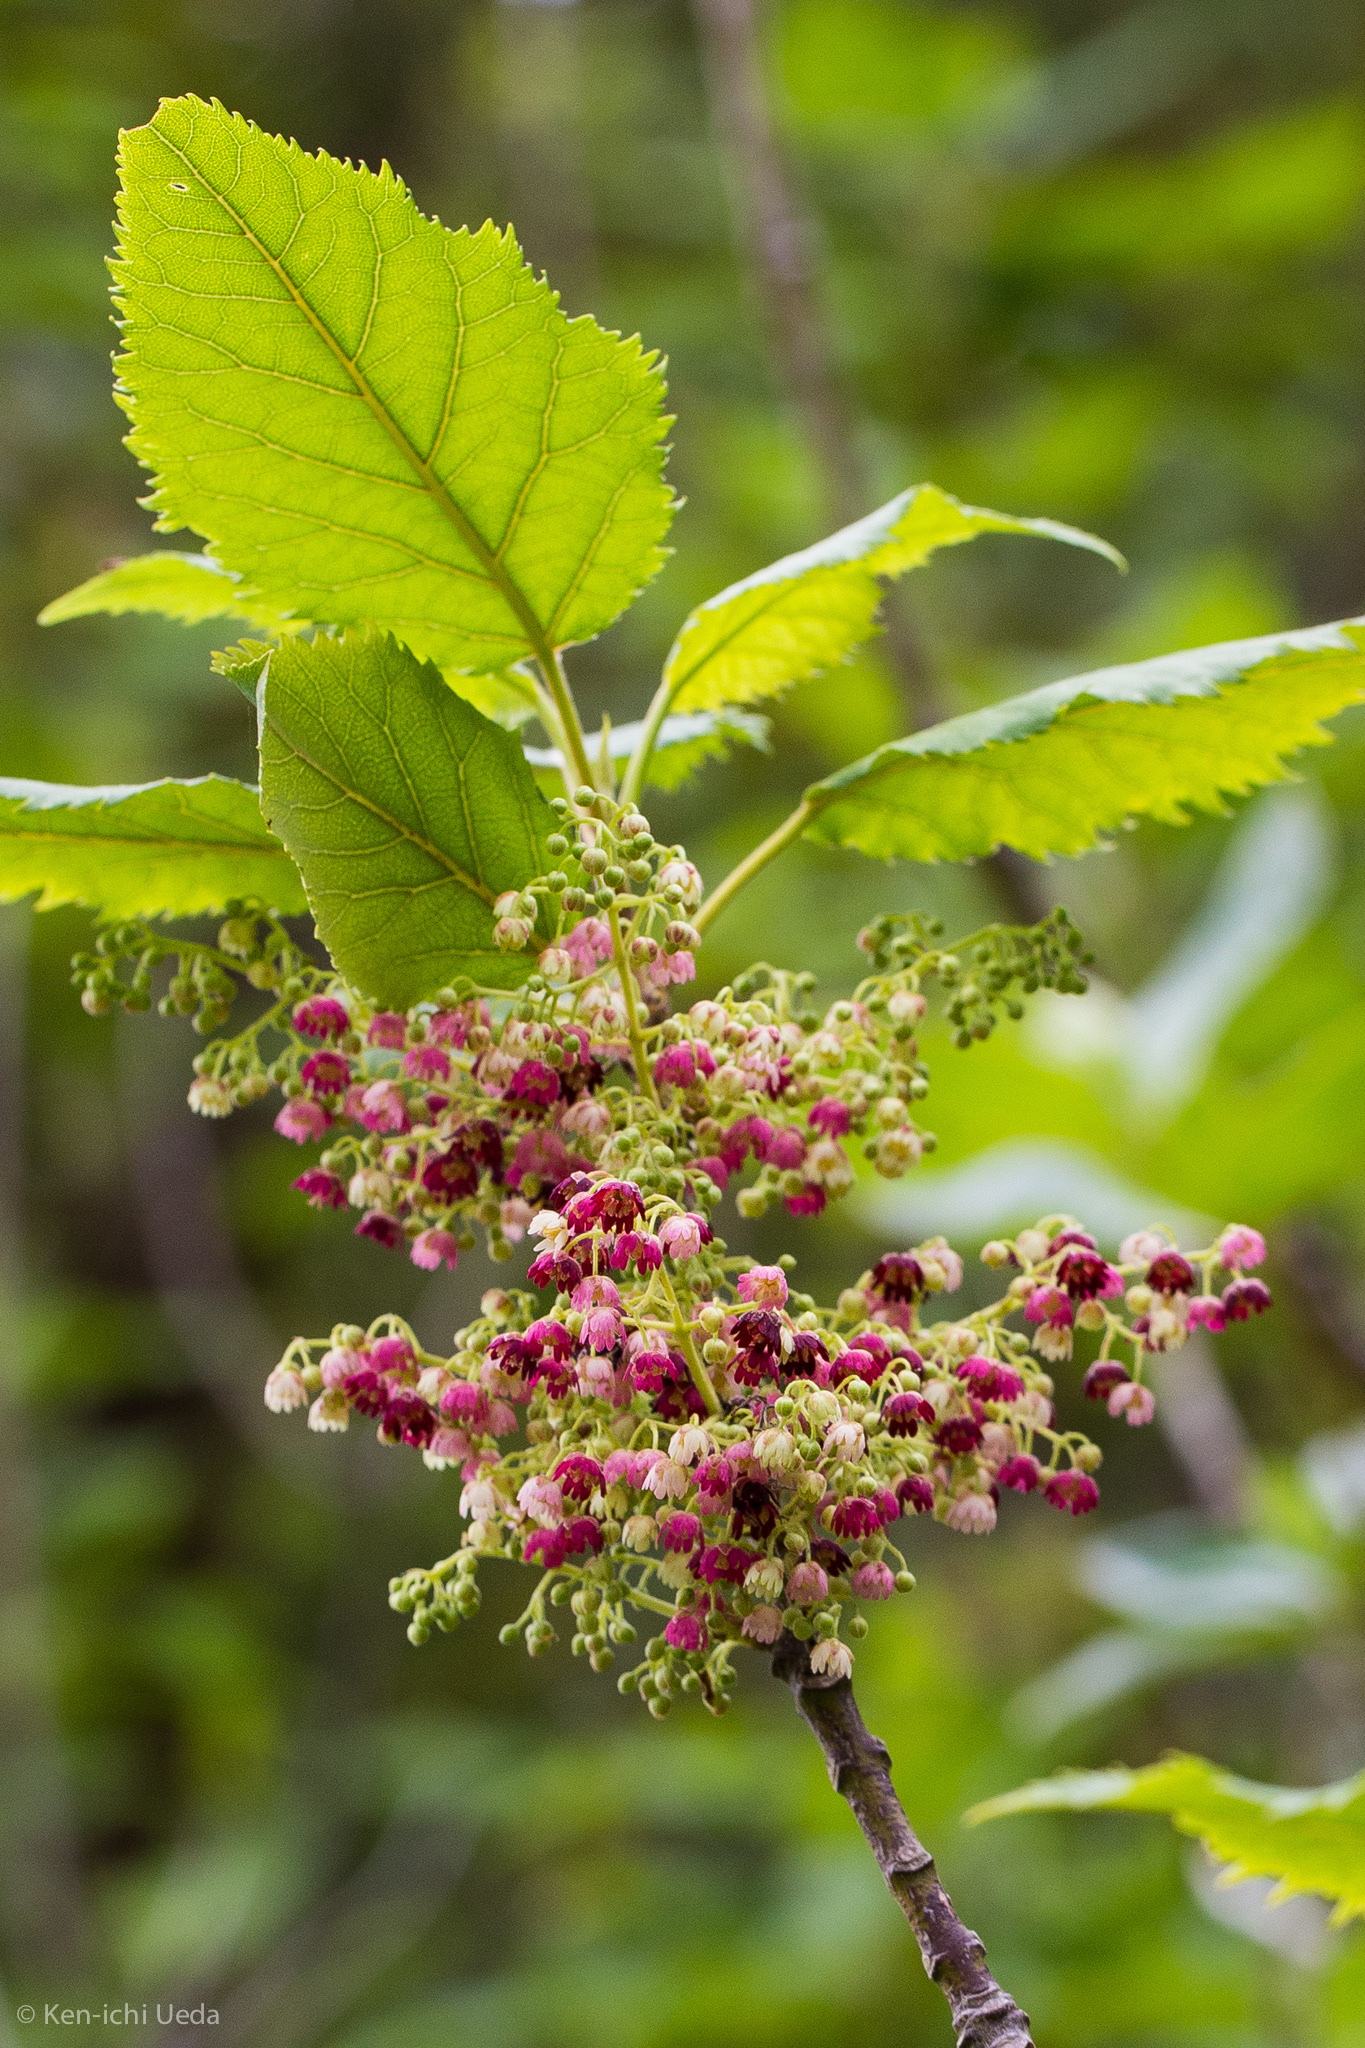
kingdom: Plantae
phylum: Tracheophyta
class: Magnoliopsida
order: Oxalidales
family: Elaeocarpaceae
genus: Aristotelia
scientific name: Aristotelia serrata
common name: New zealand wineberry
